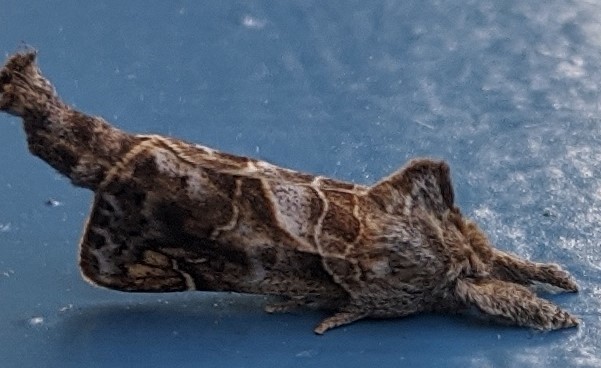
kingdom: Animalia
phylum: Arthropoda
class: Insecta
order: Lepidoptera
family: Notodontidae
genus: Clostera
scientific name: Clostera strigosa
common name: Striped chocolate-tip moth
